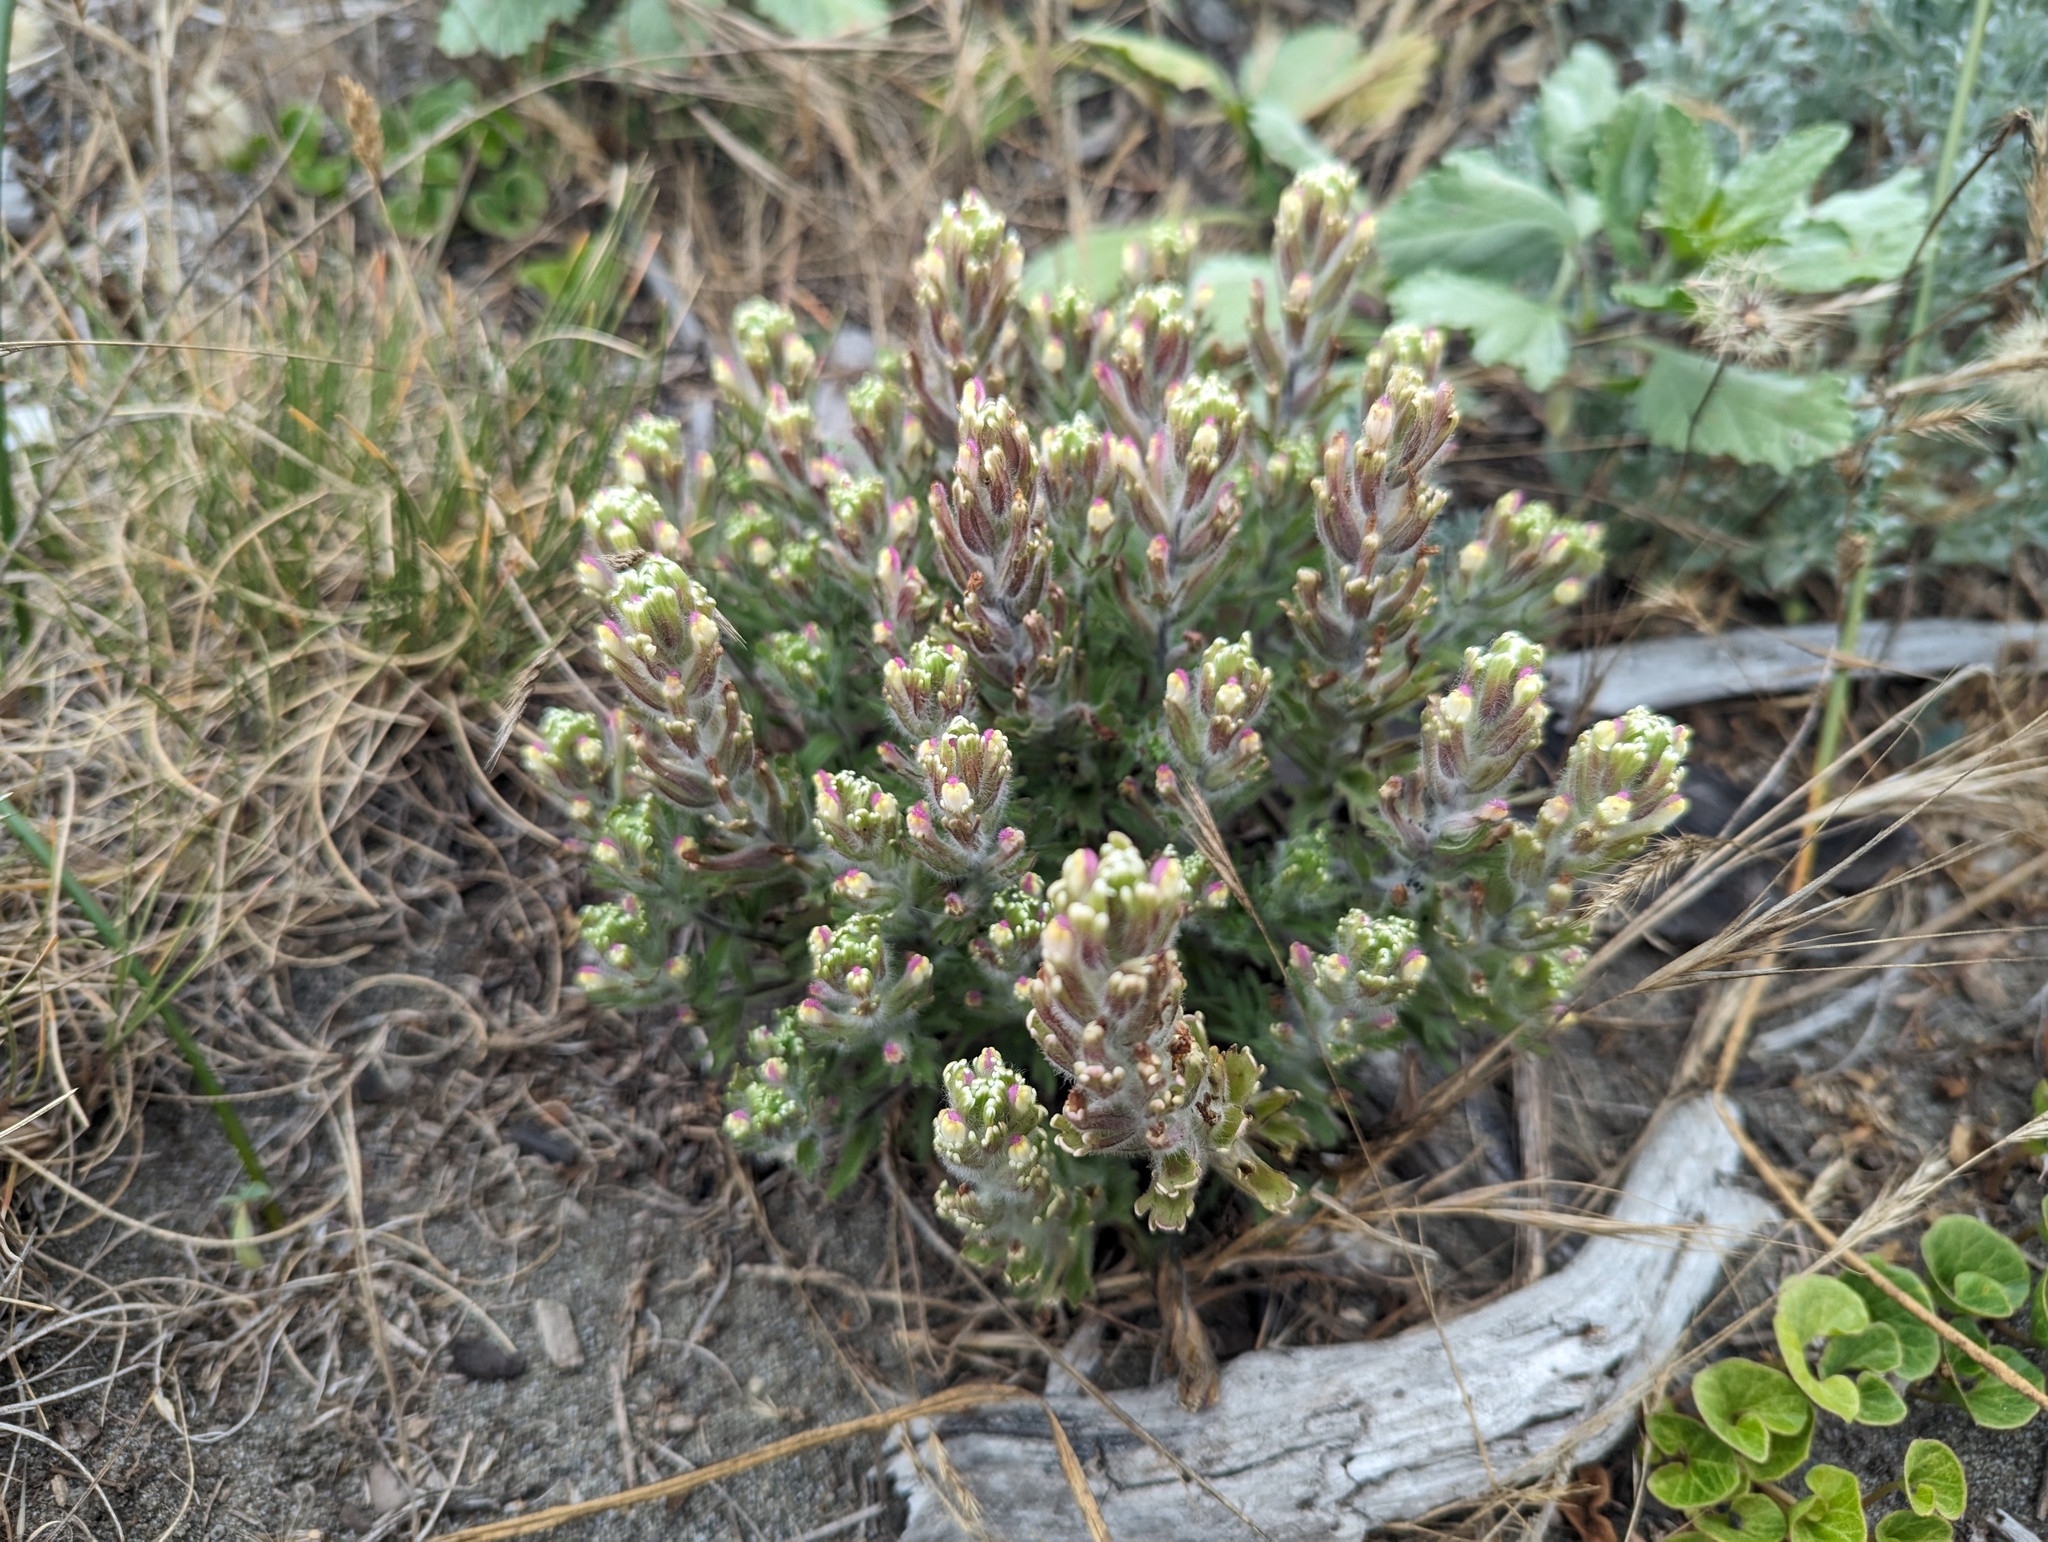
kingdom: Plantae
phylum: Tracheophyta
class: Magnoliopsida
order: Lamiales
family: Orobanchaceae
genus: Castilleja
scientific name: Castilleja exserta
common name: Purple owl-clover
